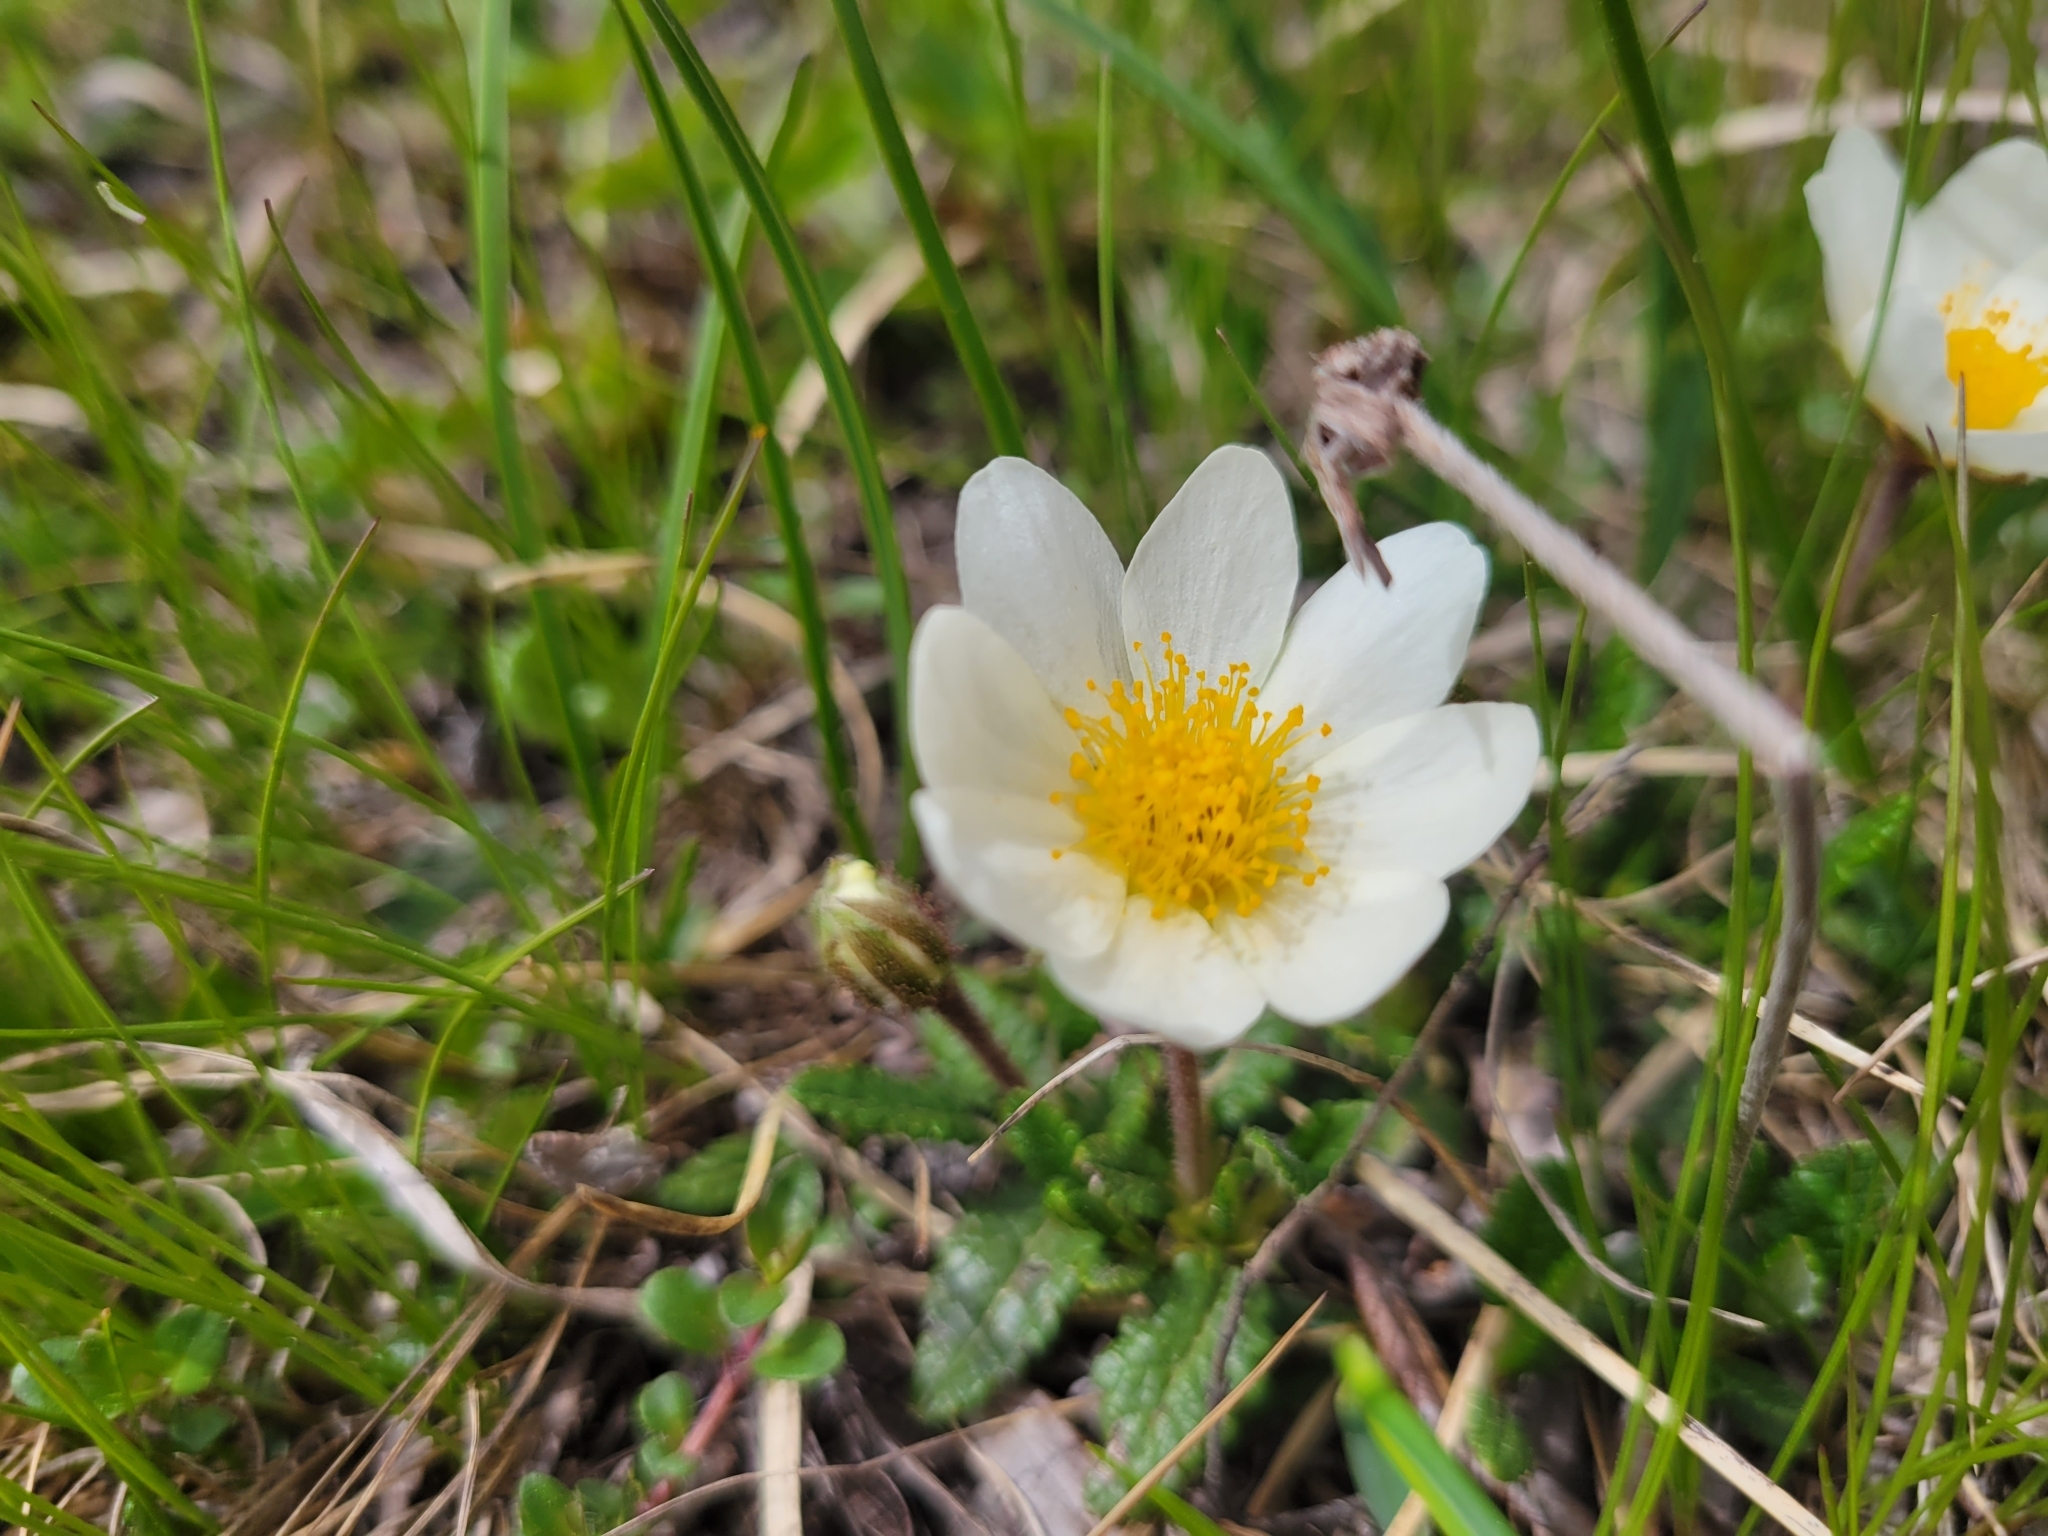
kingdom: Plantae
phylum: Tracheophyta
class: Magnoliopsida
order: Rosales
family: Rosaceae
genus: Dryas
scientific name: Dryas octopetala
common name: Eight-petal mountain-avens
